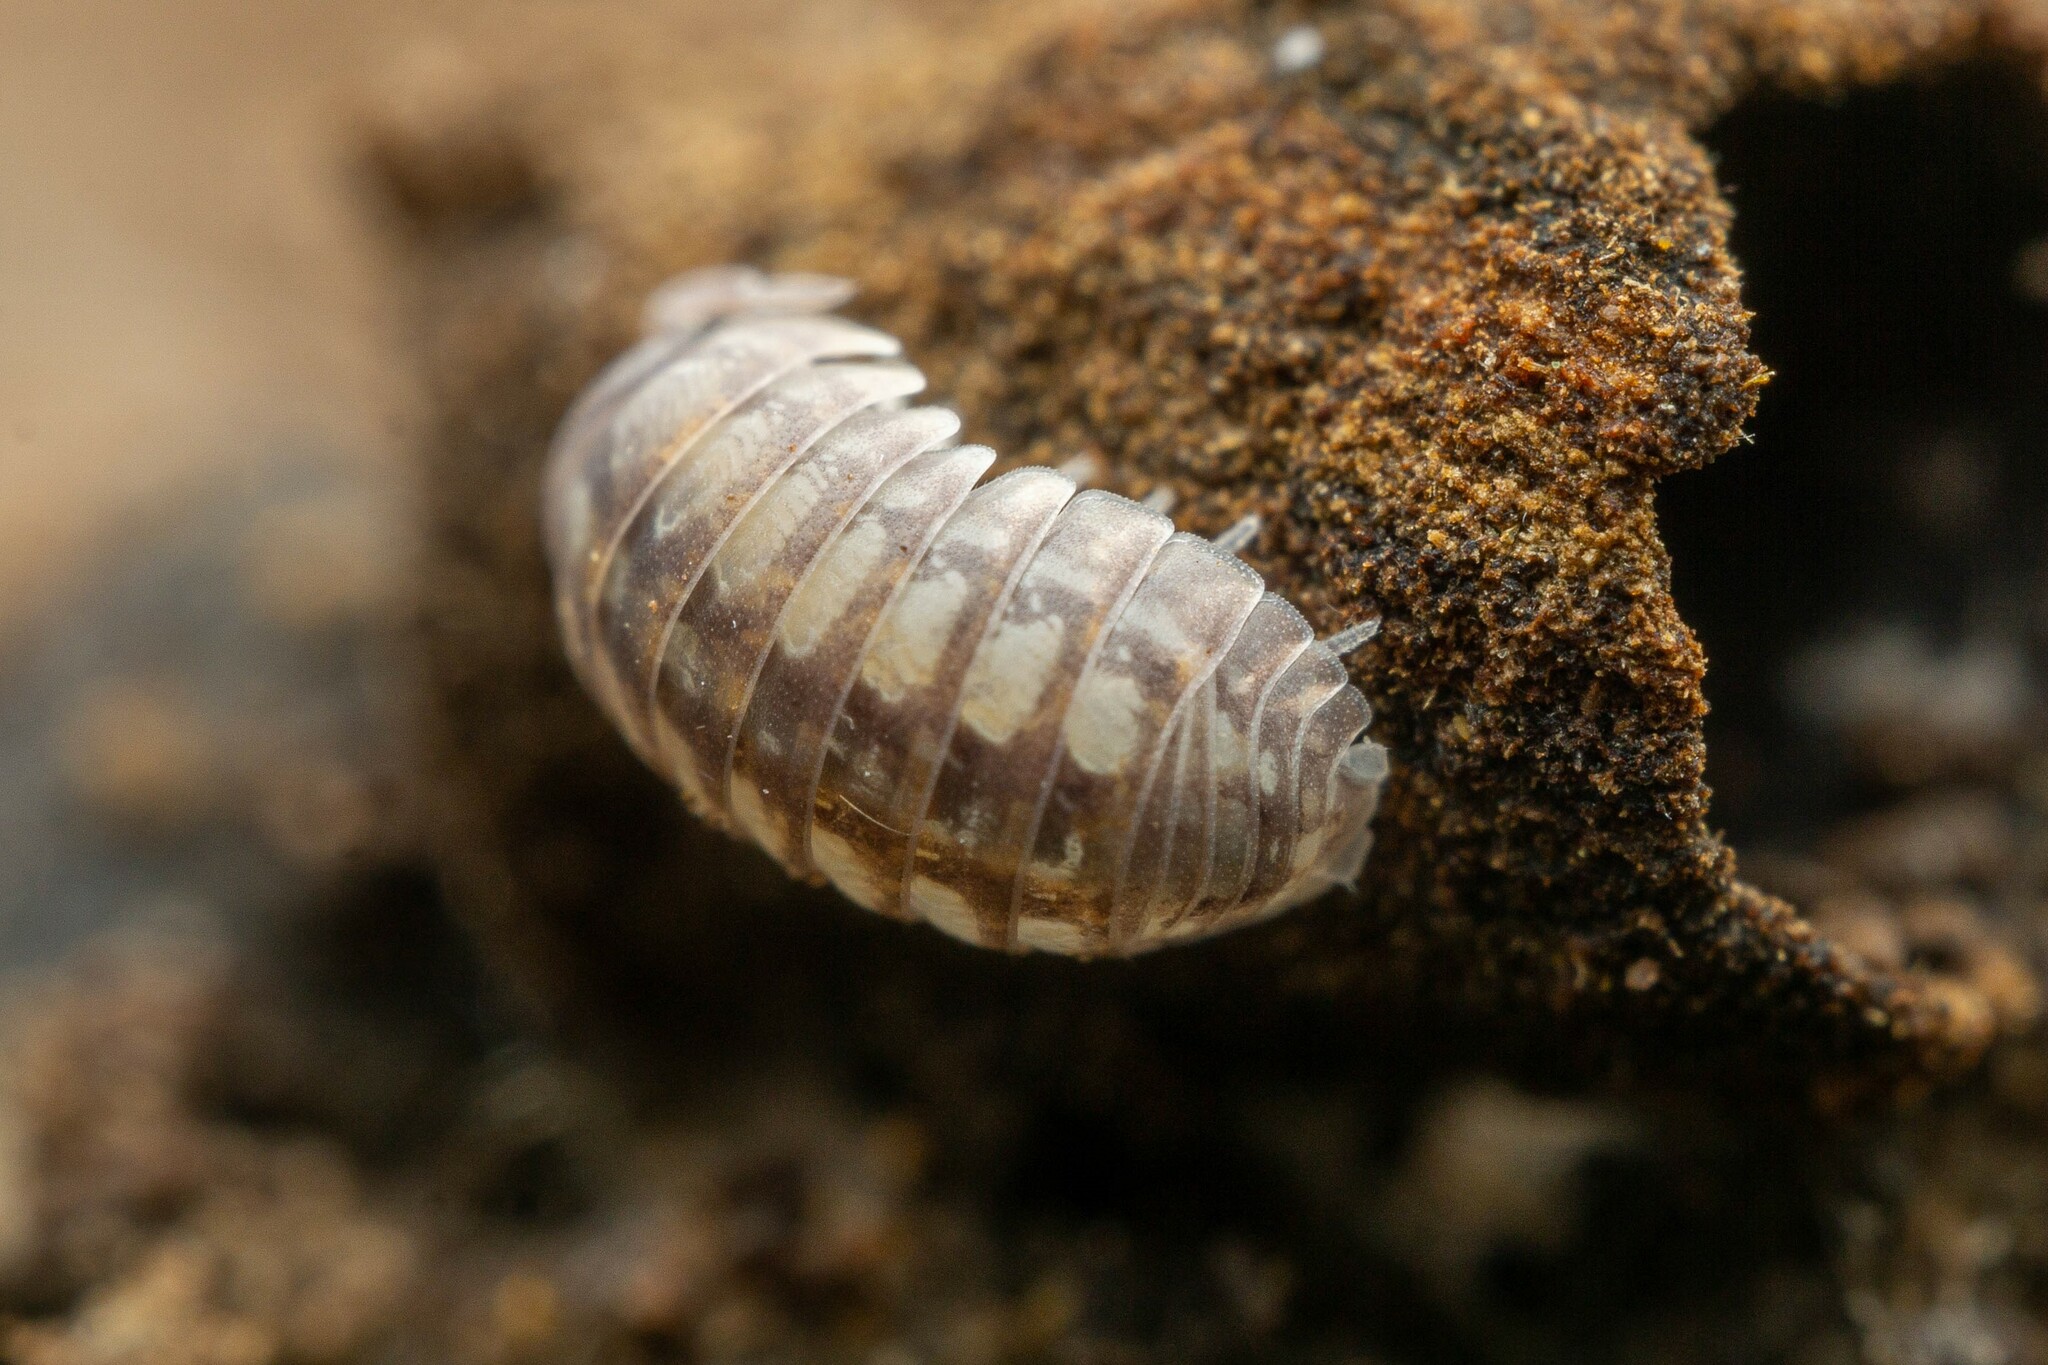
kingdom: Animalia
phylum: Arthropoda
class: Malacostraca
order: Isopoda
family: Armadillidiidae
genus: Armadillidium
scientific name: Armadillidium vulgare
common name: Common pill woodlouse
